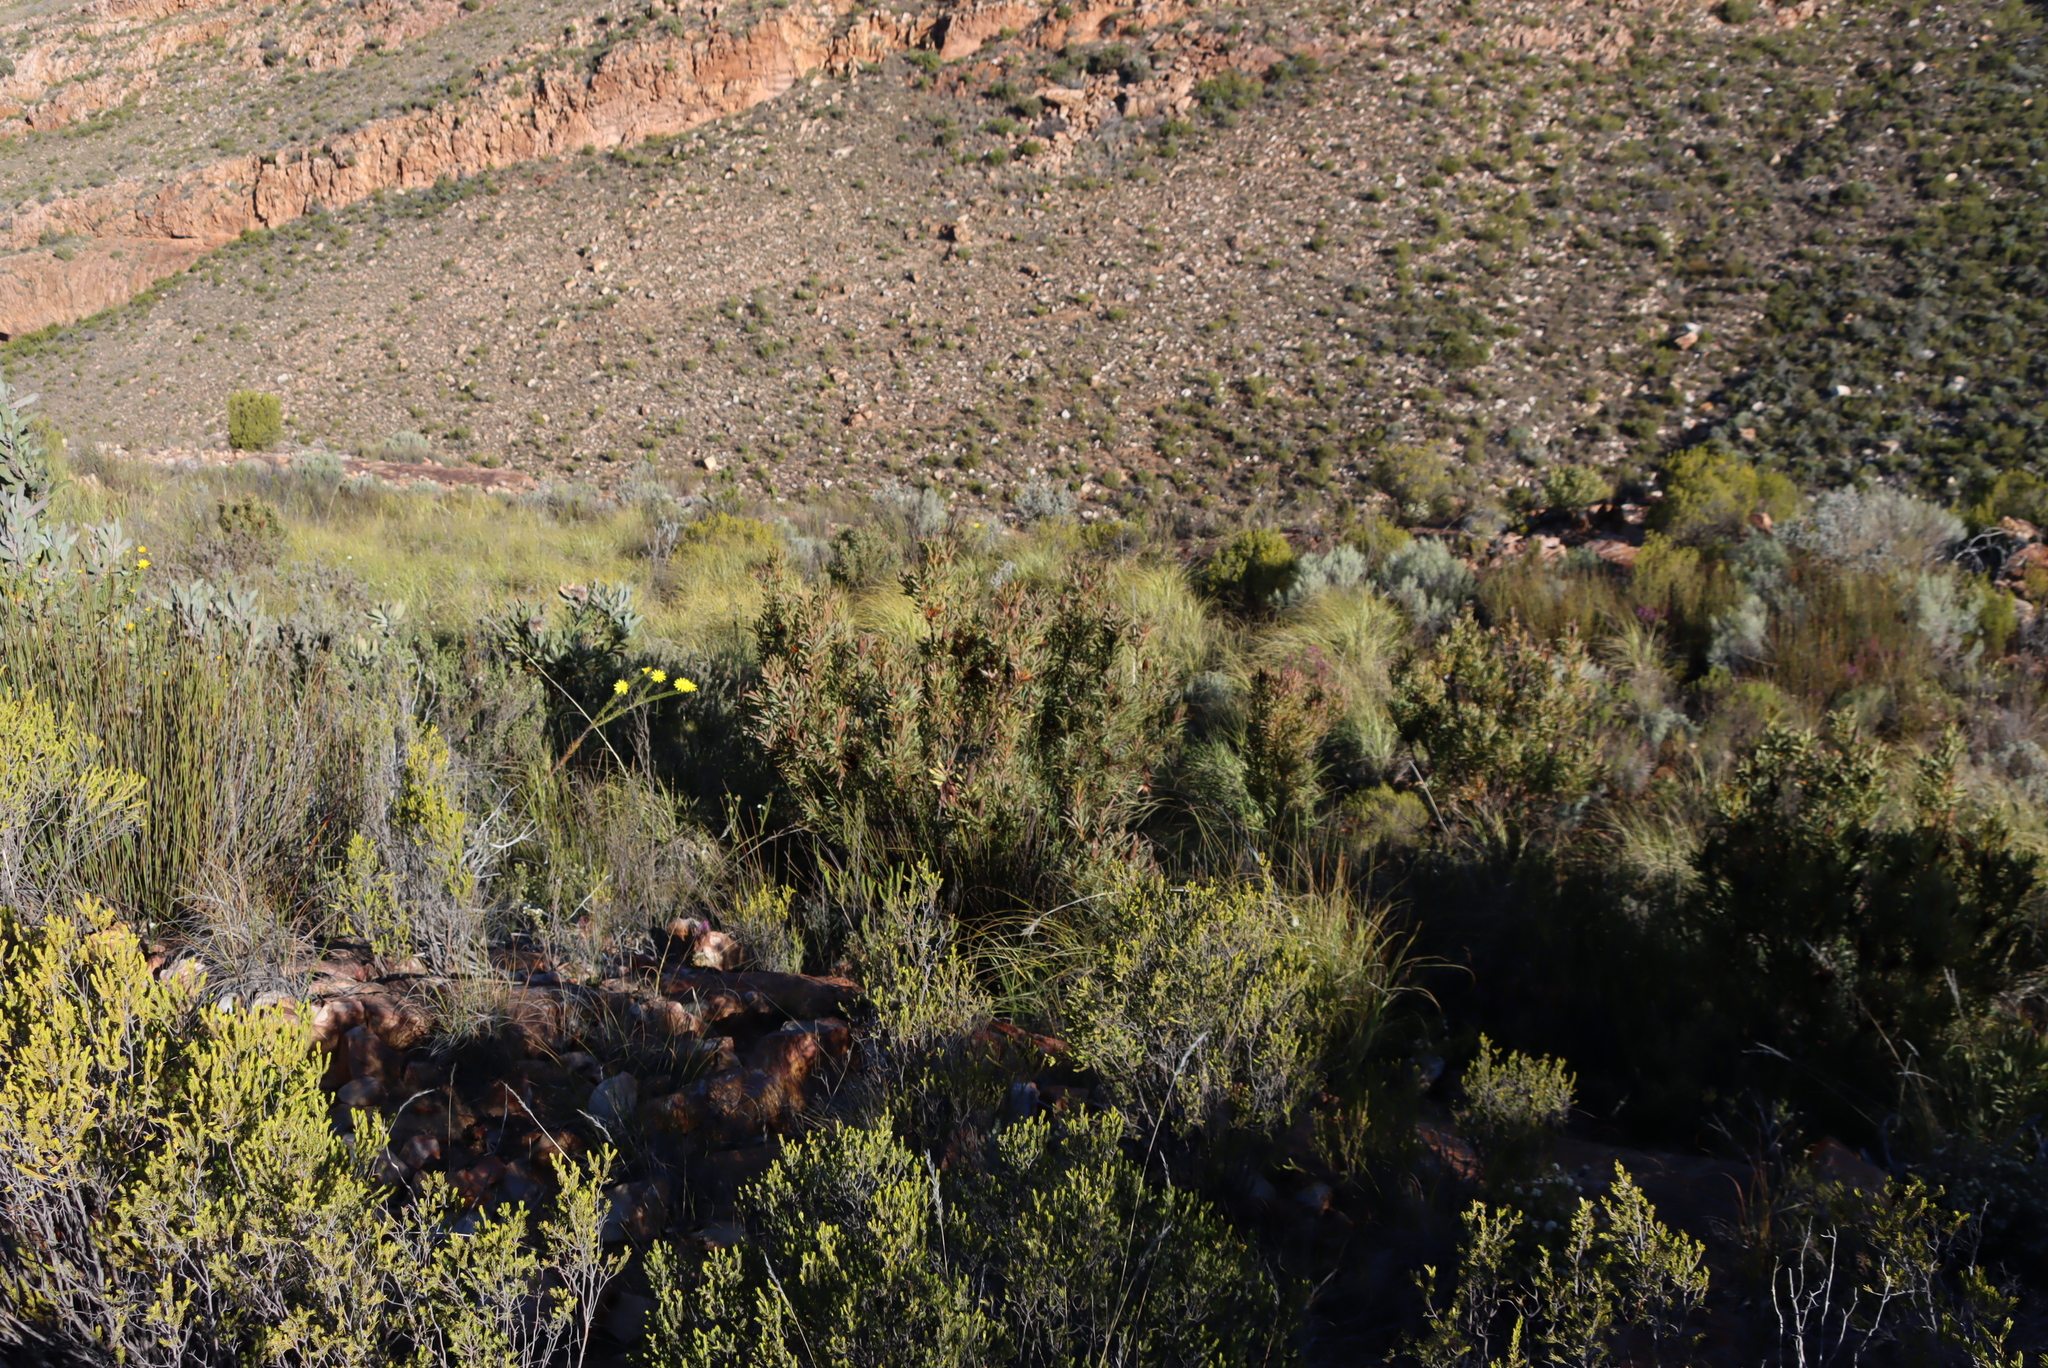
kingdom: Plantae
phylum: Tracheophyta
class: Magnoliopsida
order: Proteales
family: Proteaceae
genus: Protea
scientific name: Protea repens
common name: Sugarbush
